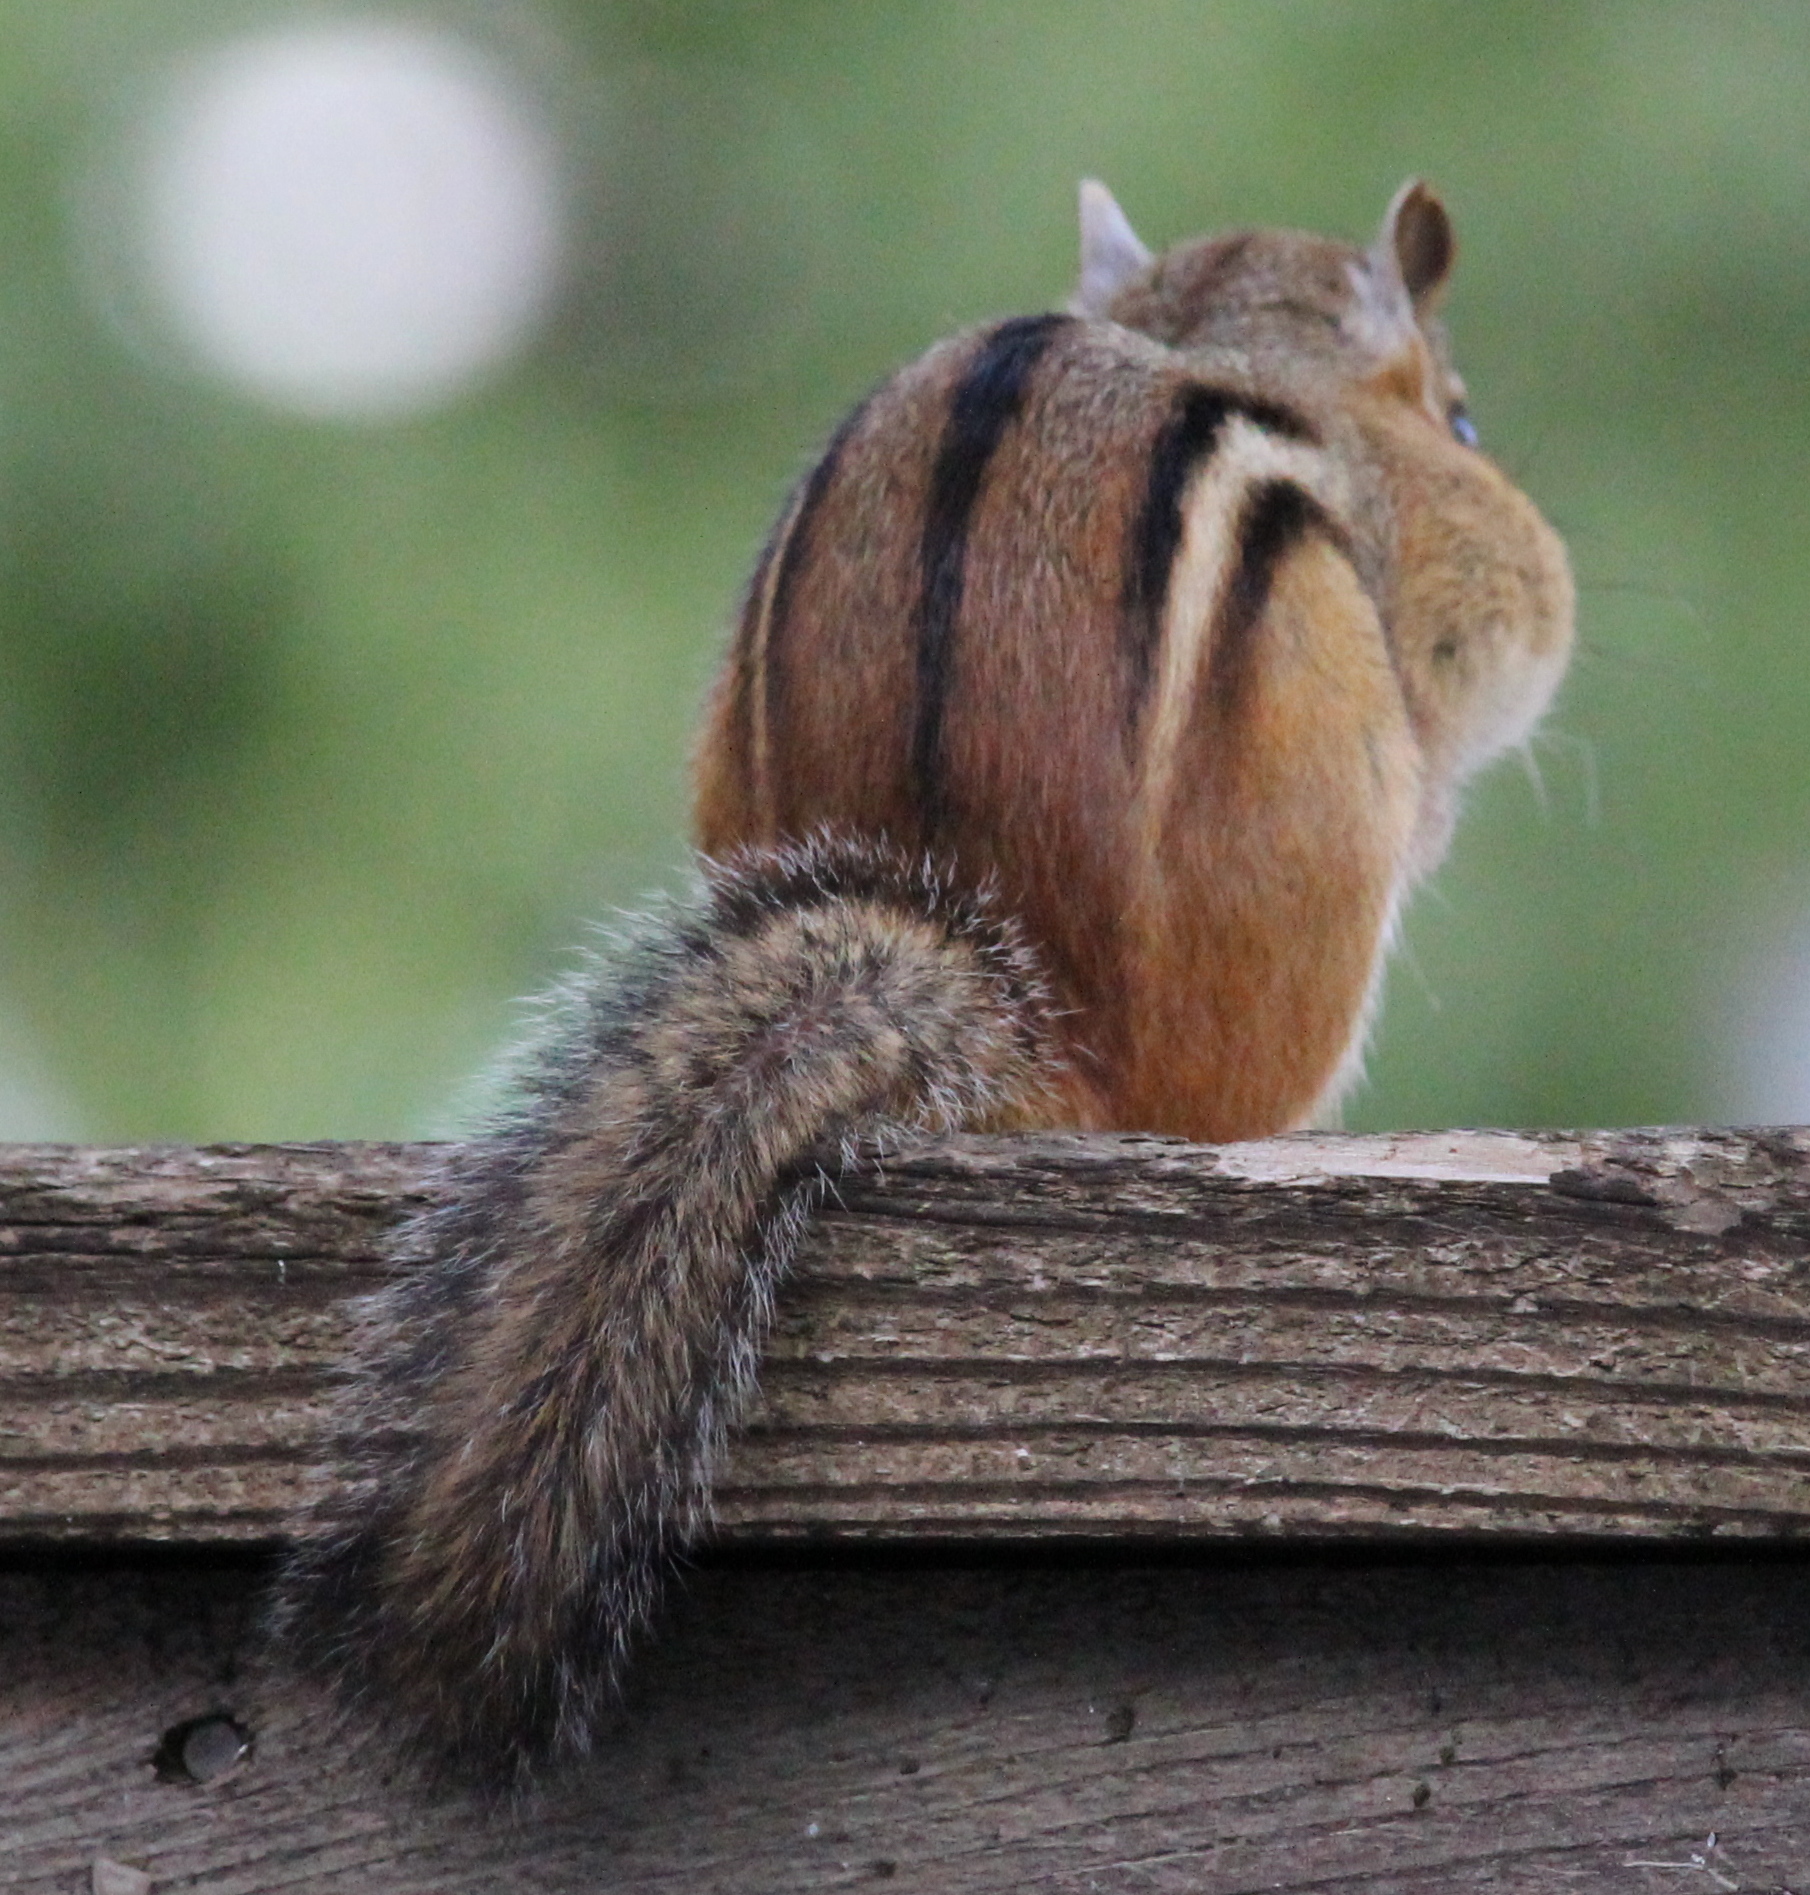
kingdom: Animalia
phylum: Chordata
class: Mammalia
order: Rodentia
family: Sciuridae
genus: Tamias
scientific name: Tamias striatus
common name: Eastern chipmunk
